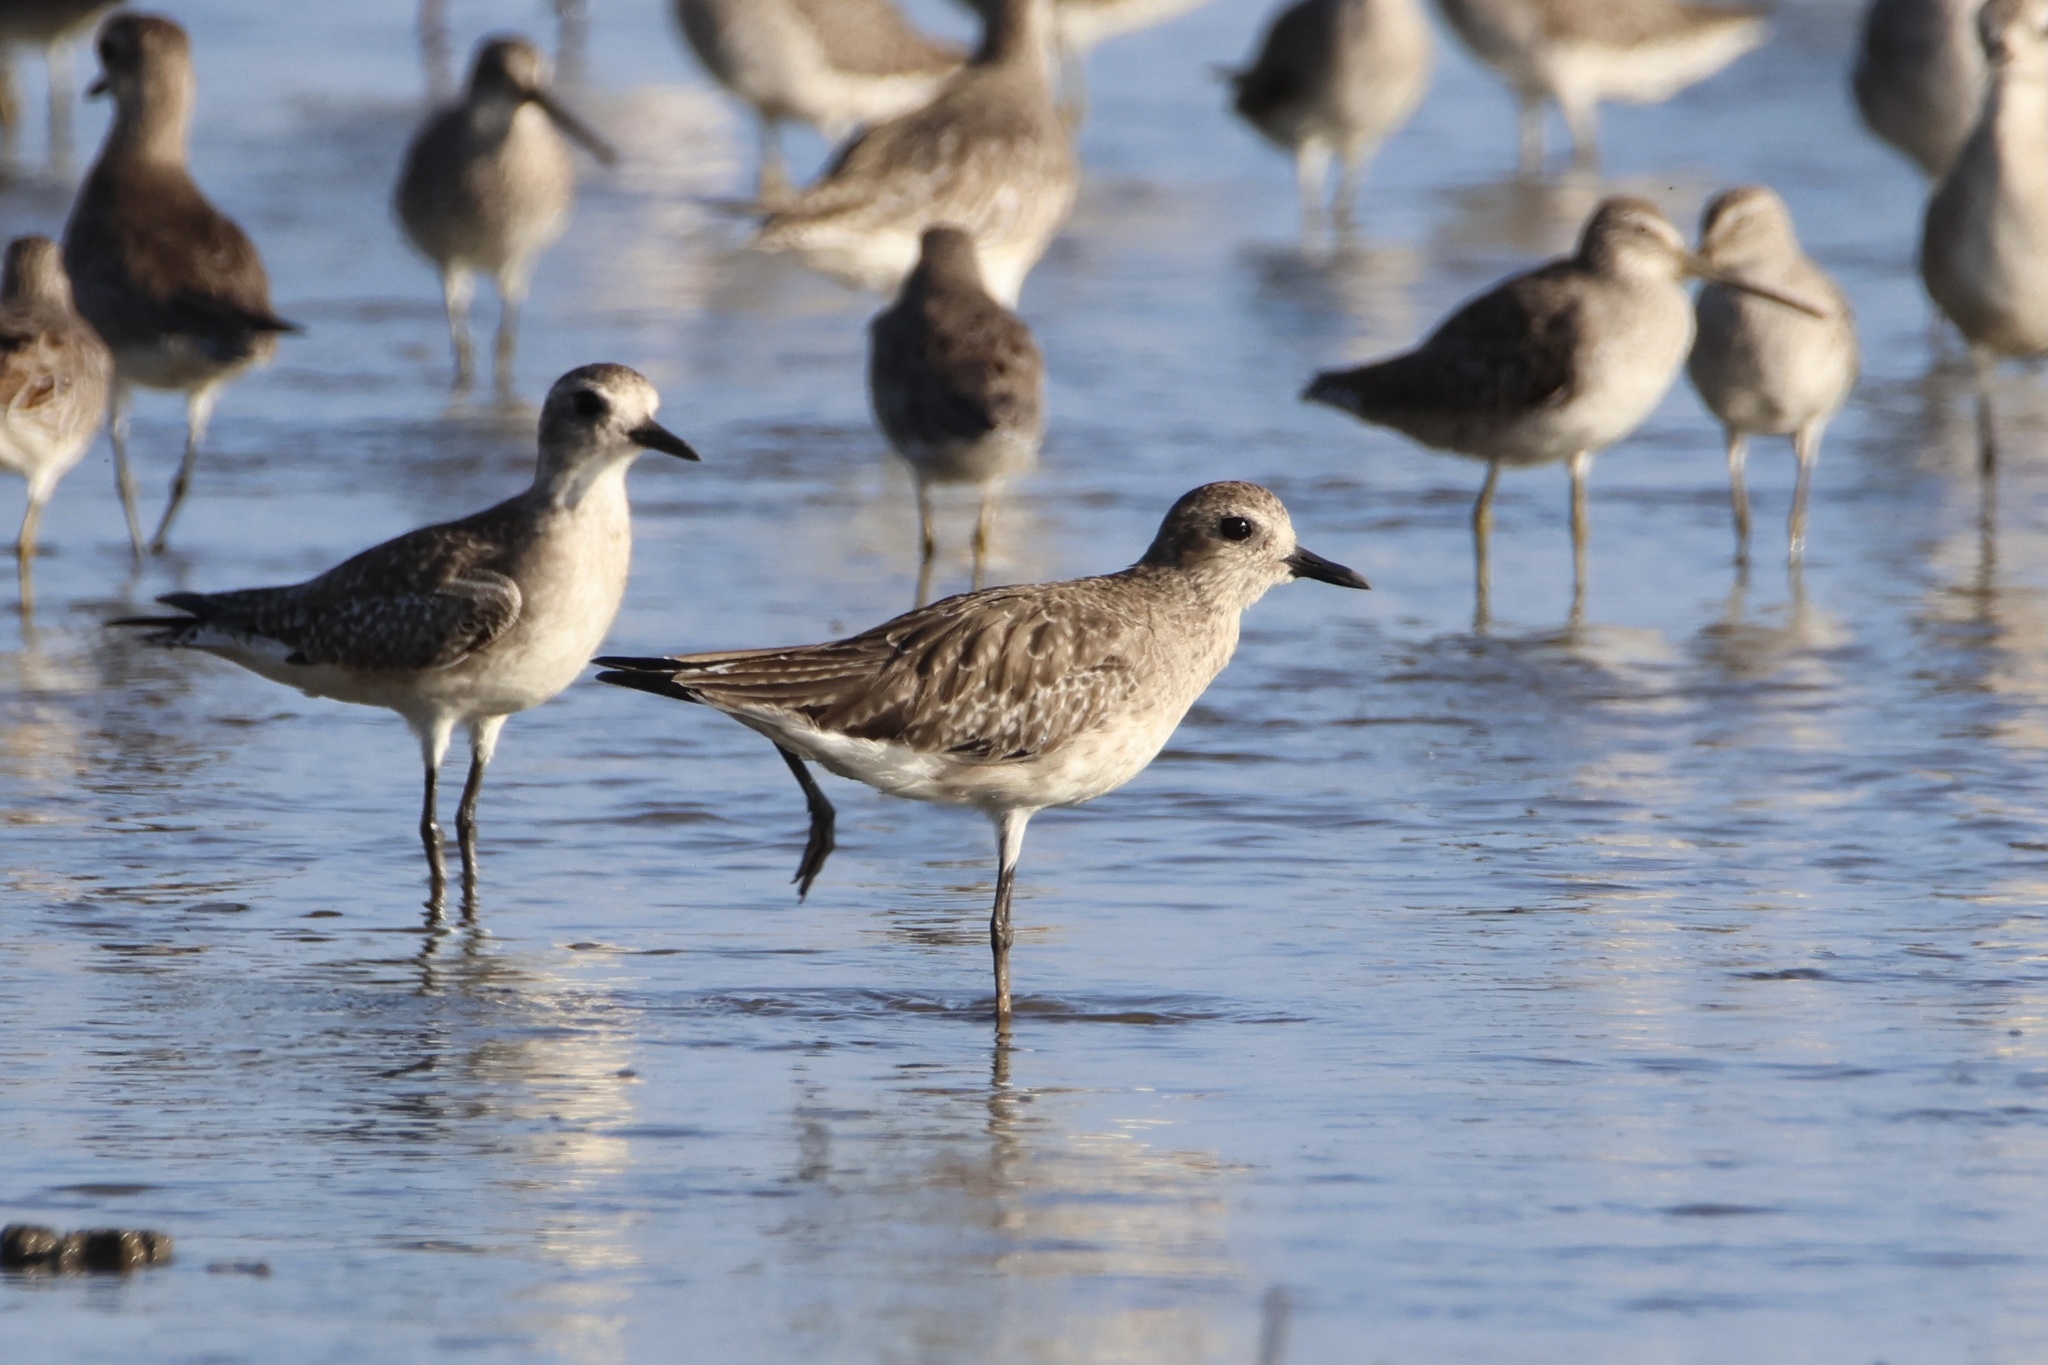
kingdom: Animalia
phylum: Chordata
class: Aves
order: Charadriiformes
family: Charadriidae
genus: Pluvialis
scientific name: Pluvialis squatarola
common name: Grey plover
